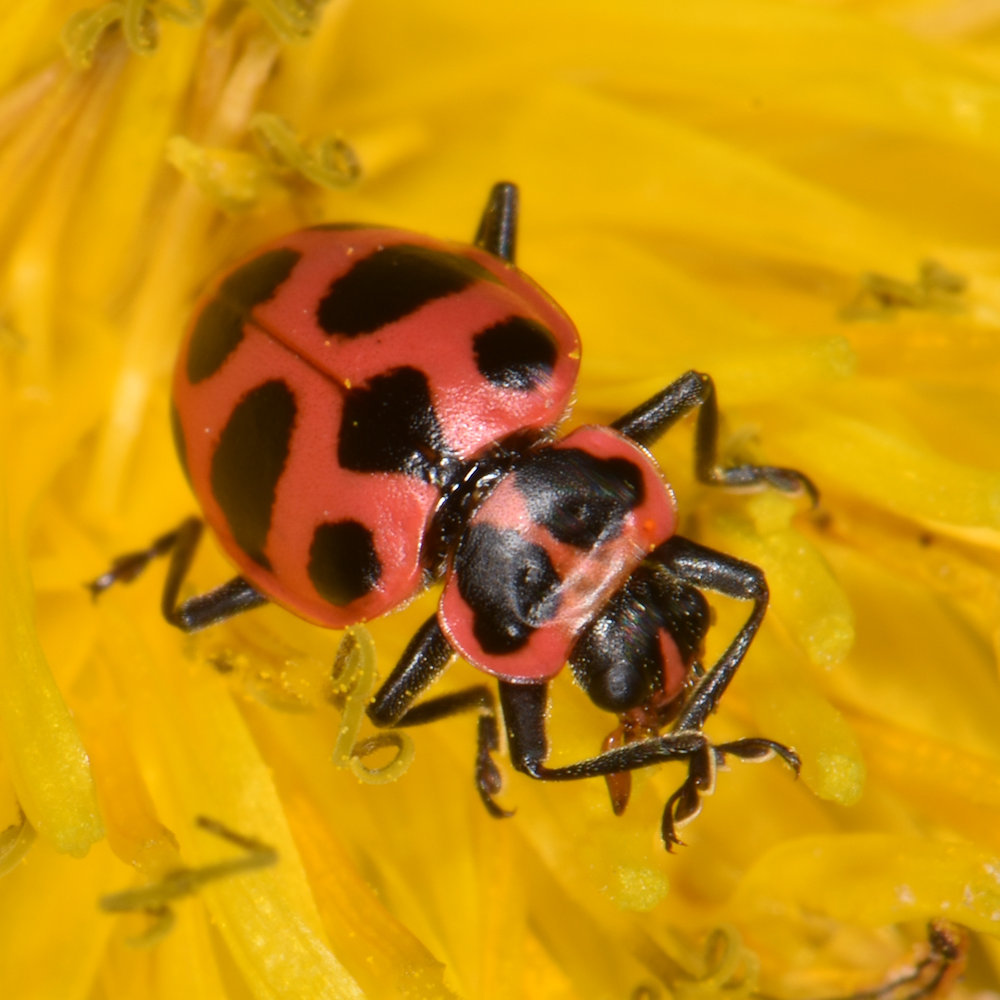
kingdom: Animalia
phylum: Arthropoda
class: Insecta
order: Coleoptera
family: Coccinellidae
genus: Coleomegilla
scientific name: Coleomegilla maculata
